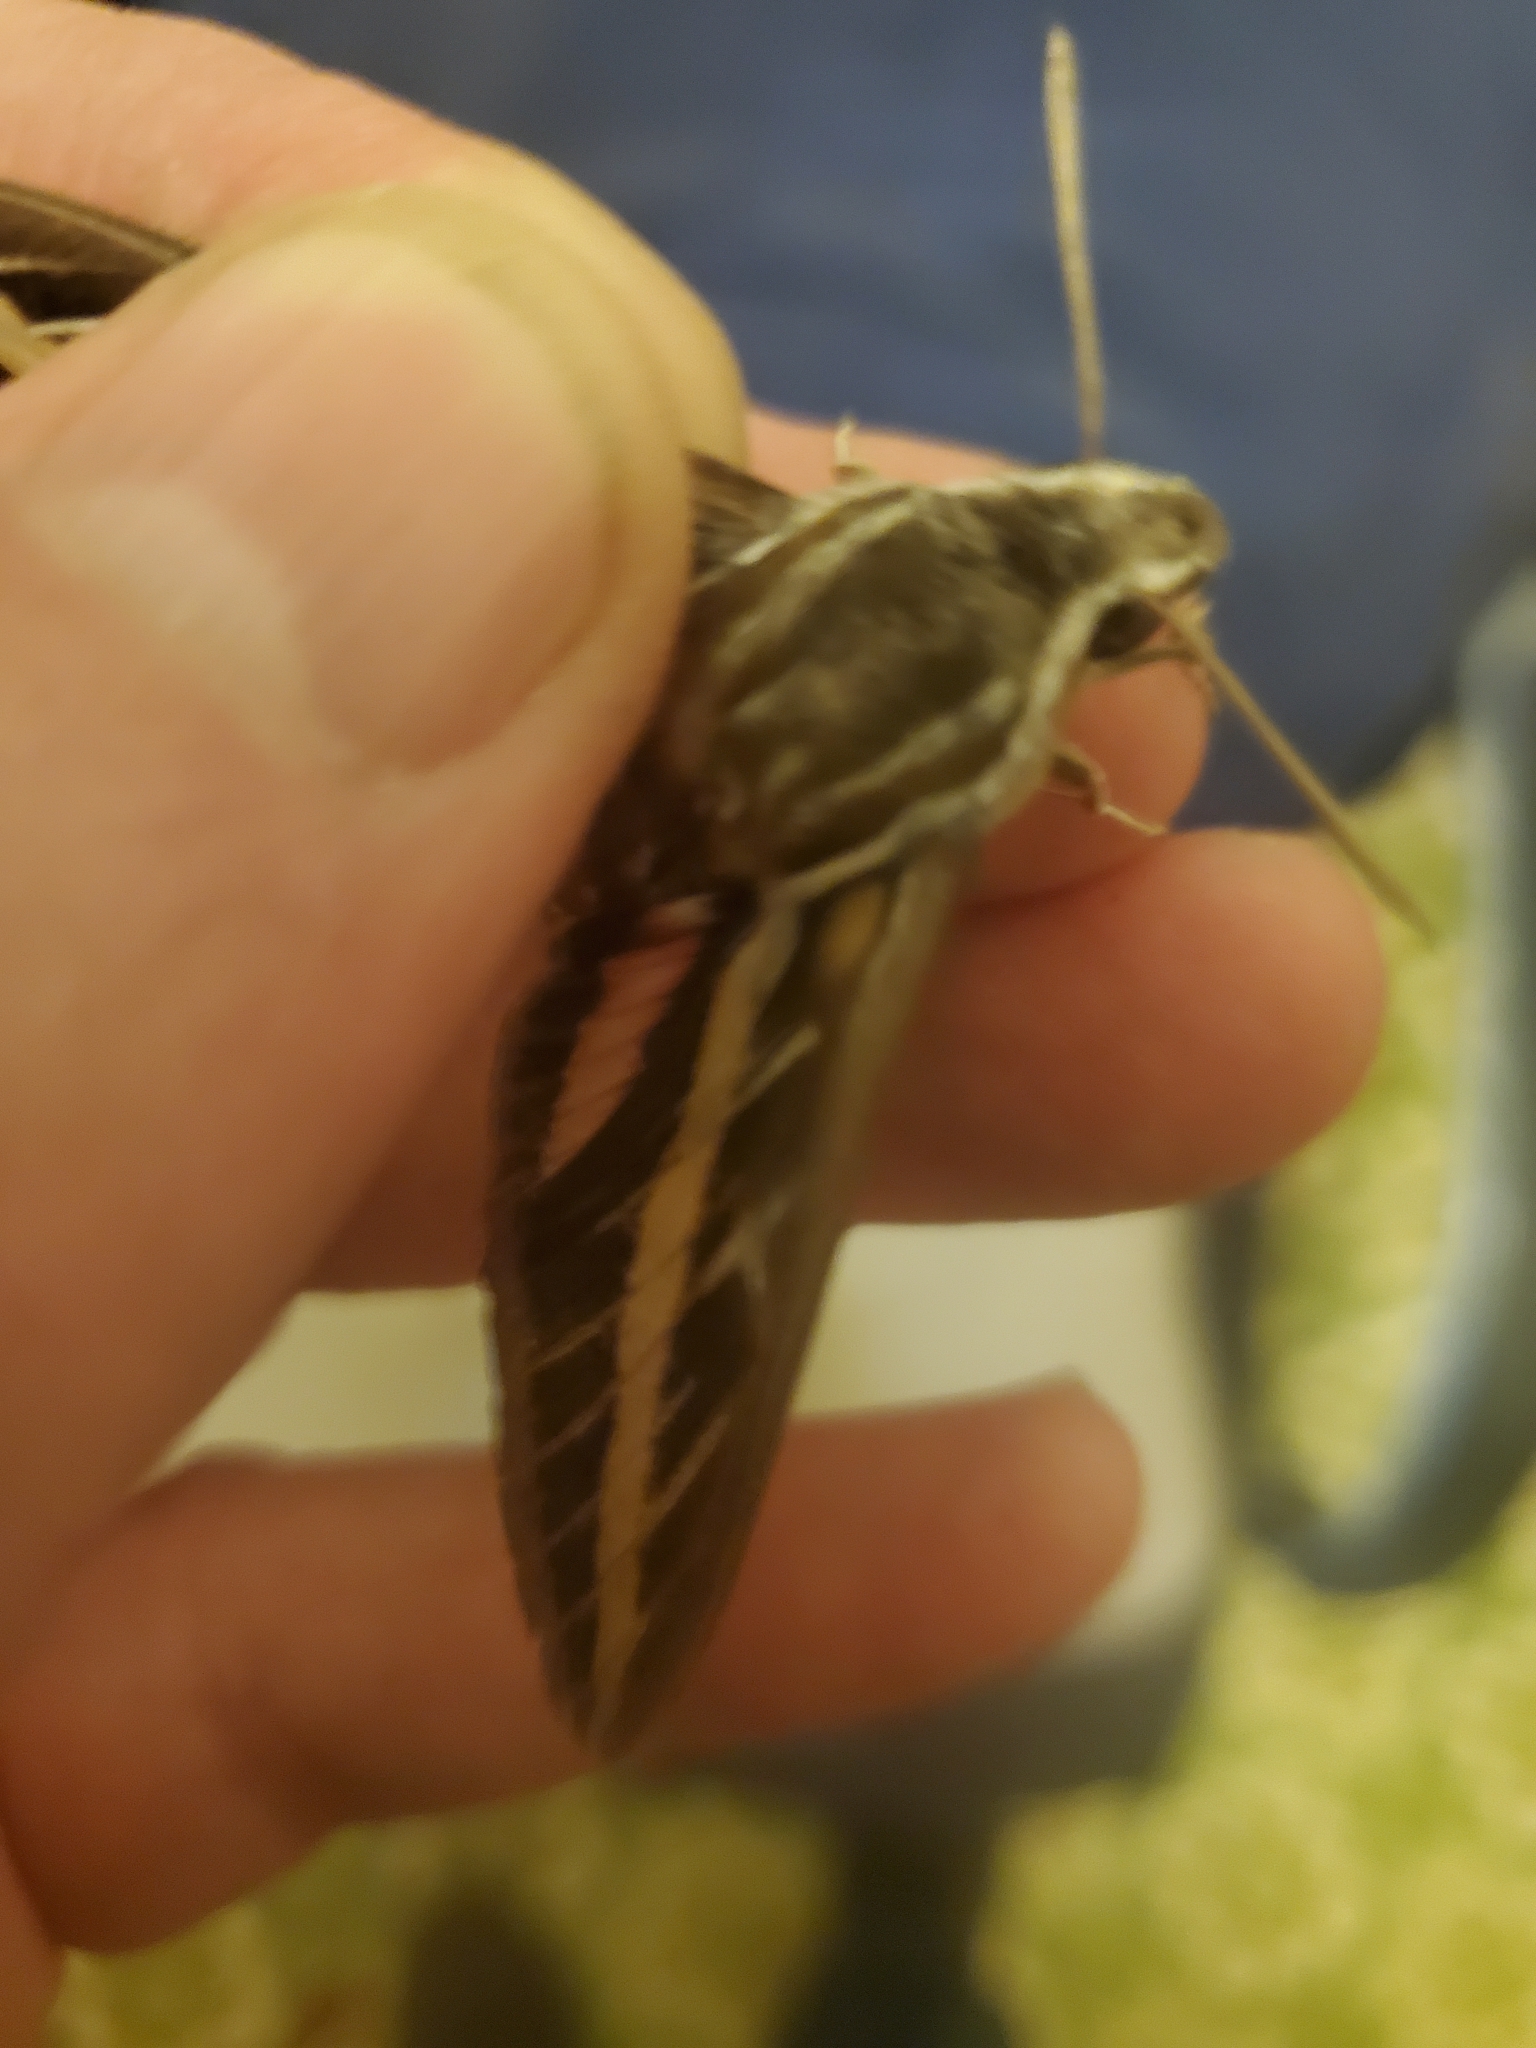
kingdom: Animalia
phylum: Arthropoda
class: Insecta
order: Lepidoptera
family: Sphingidae
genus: Hyles
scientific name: Hyles lineata
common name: White-lined sphinx
